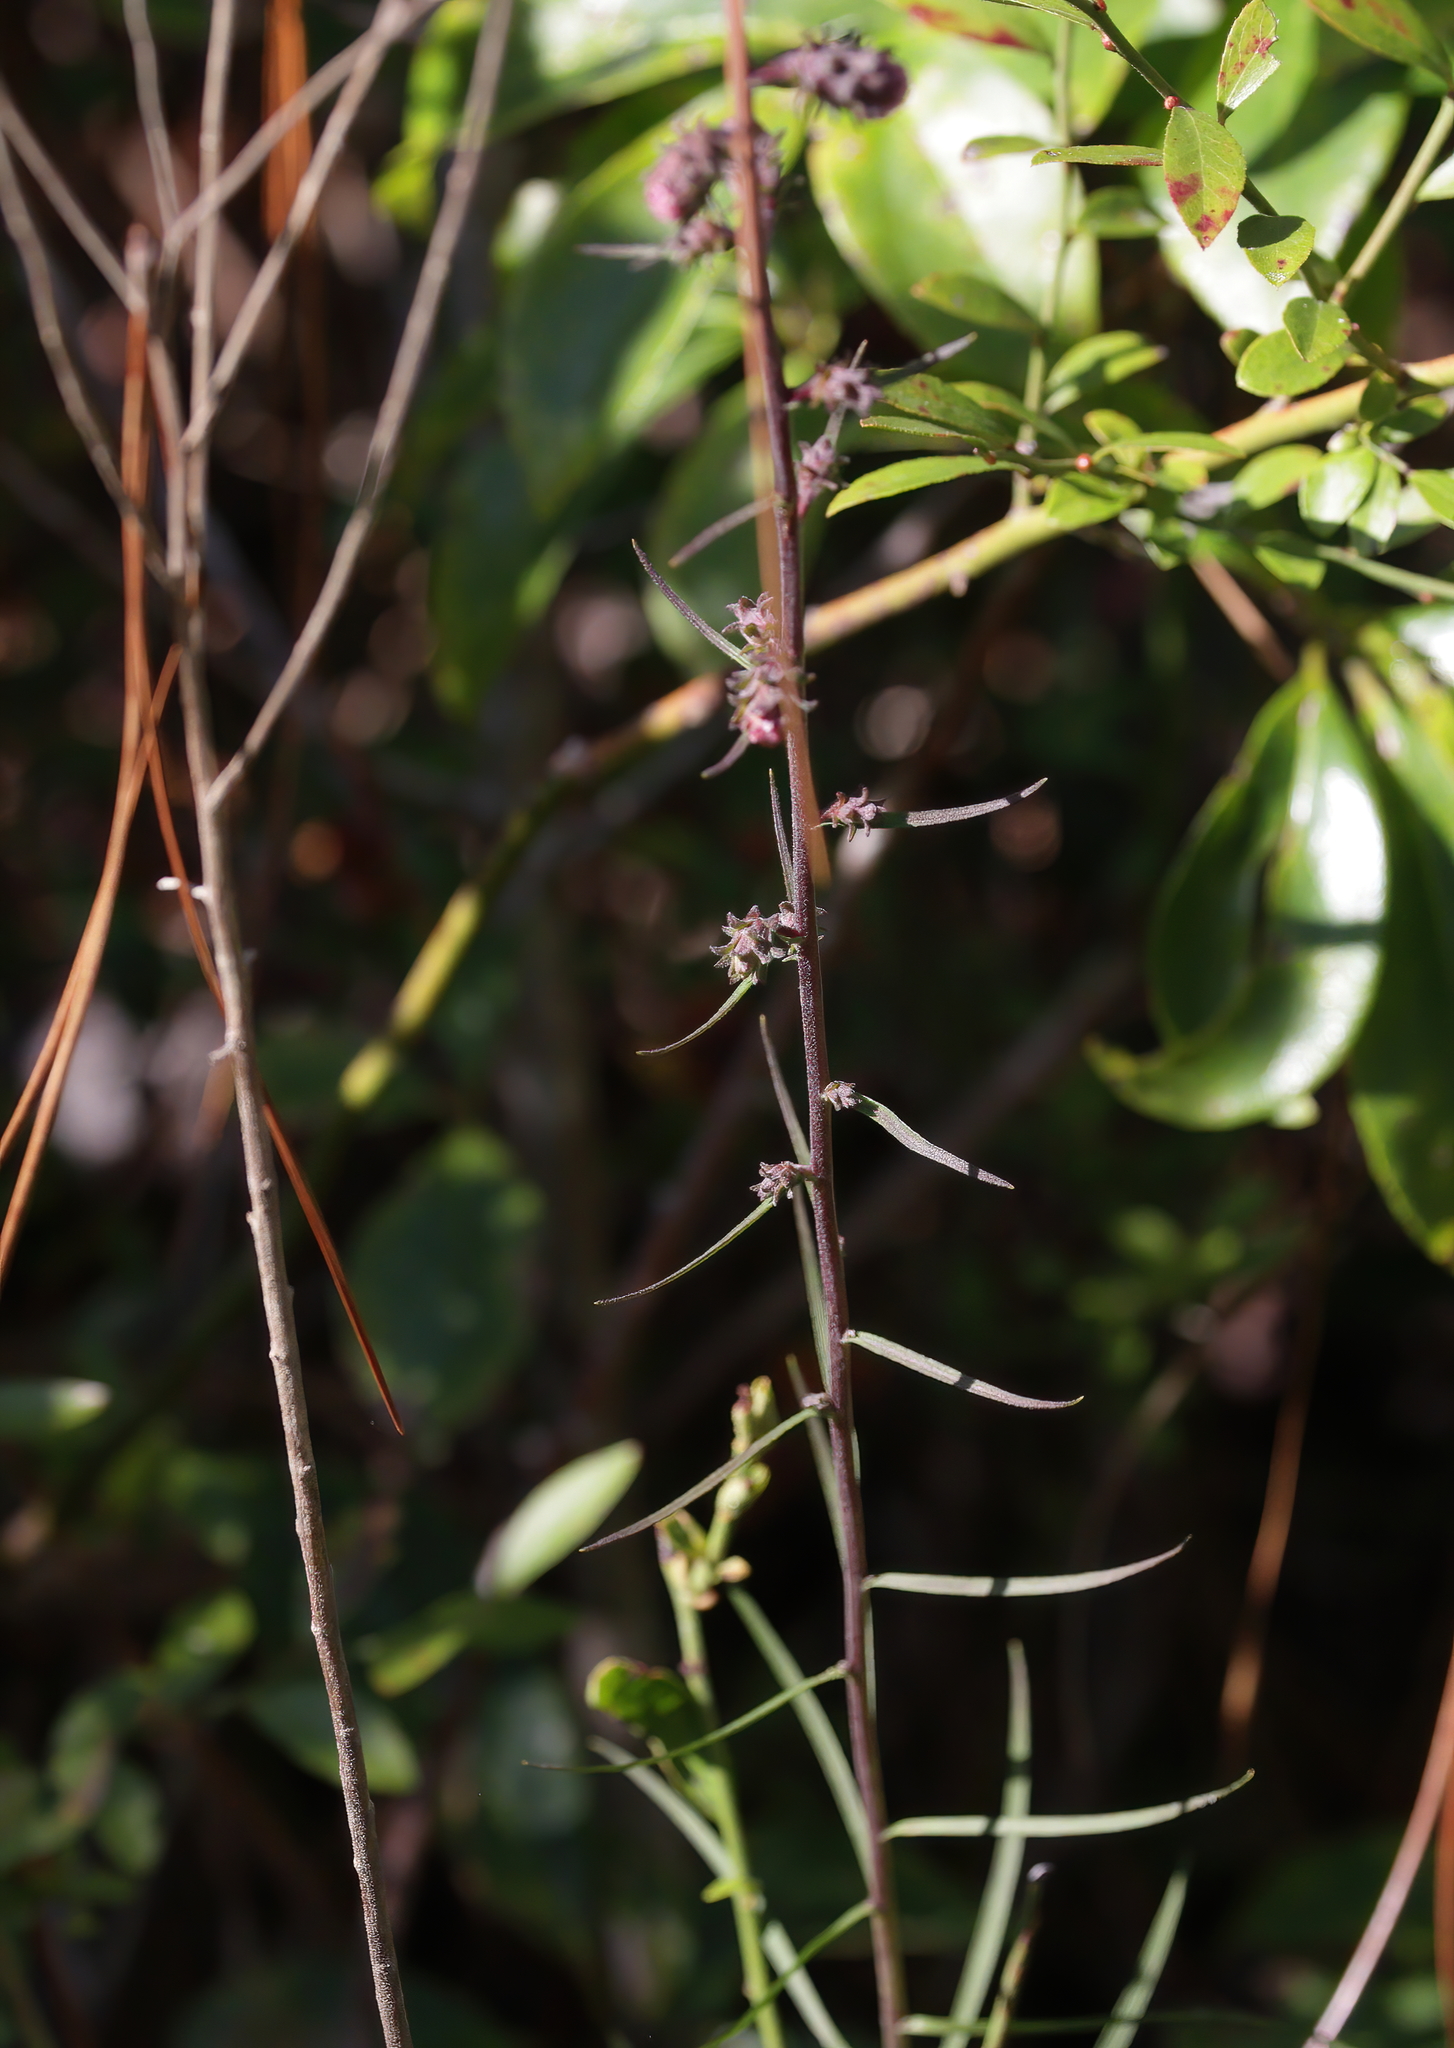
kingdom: Plantae
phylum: Tracheophyta
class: Magnoliopsida
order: Asterales
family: Asteraceae
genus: Liatris
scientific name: Liatris squarrulosa
